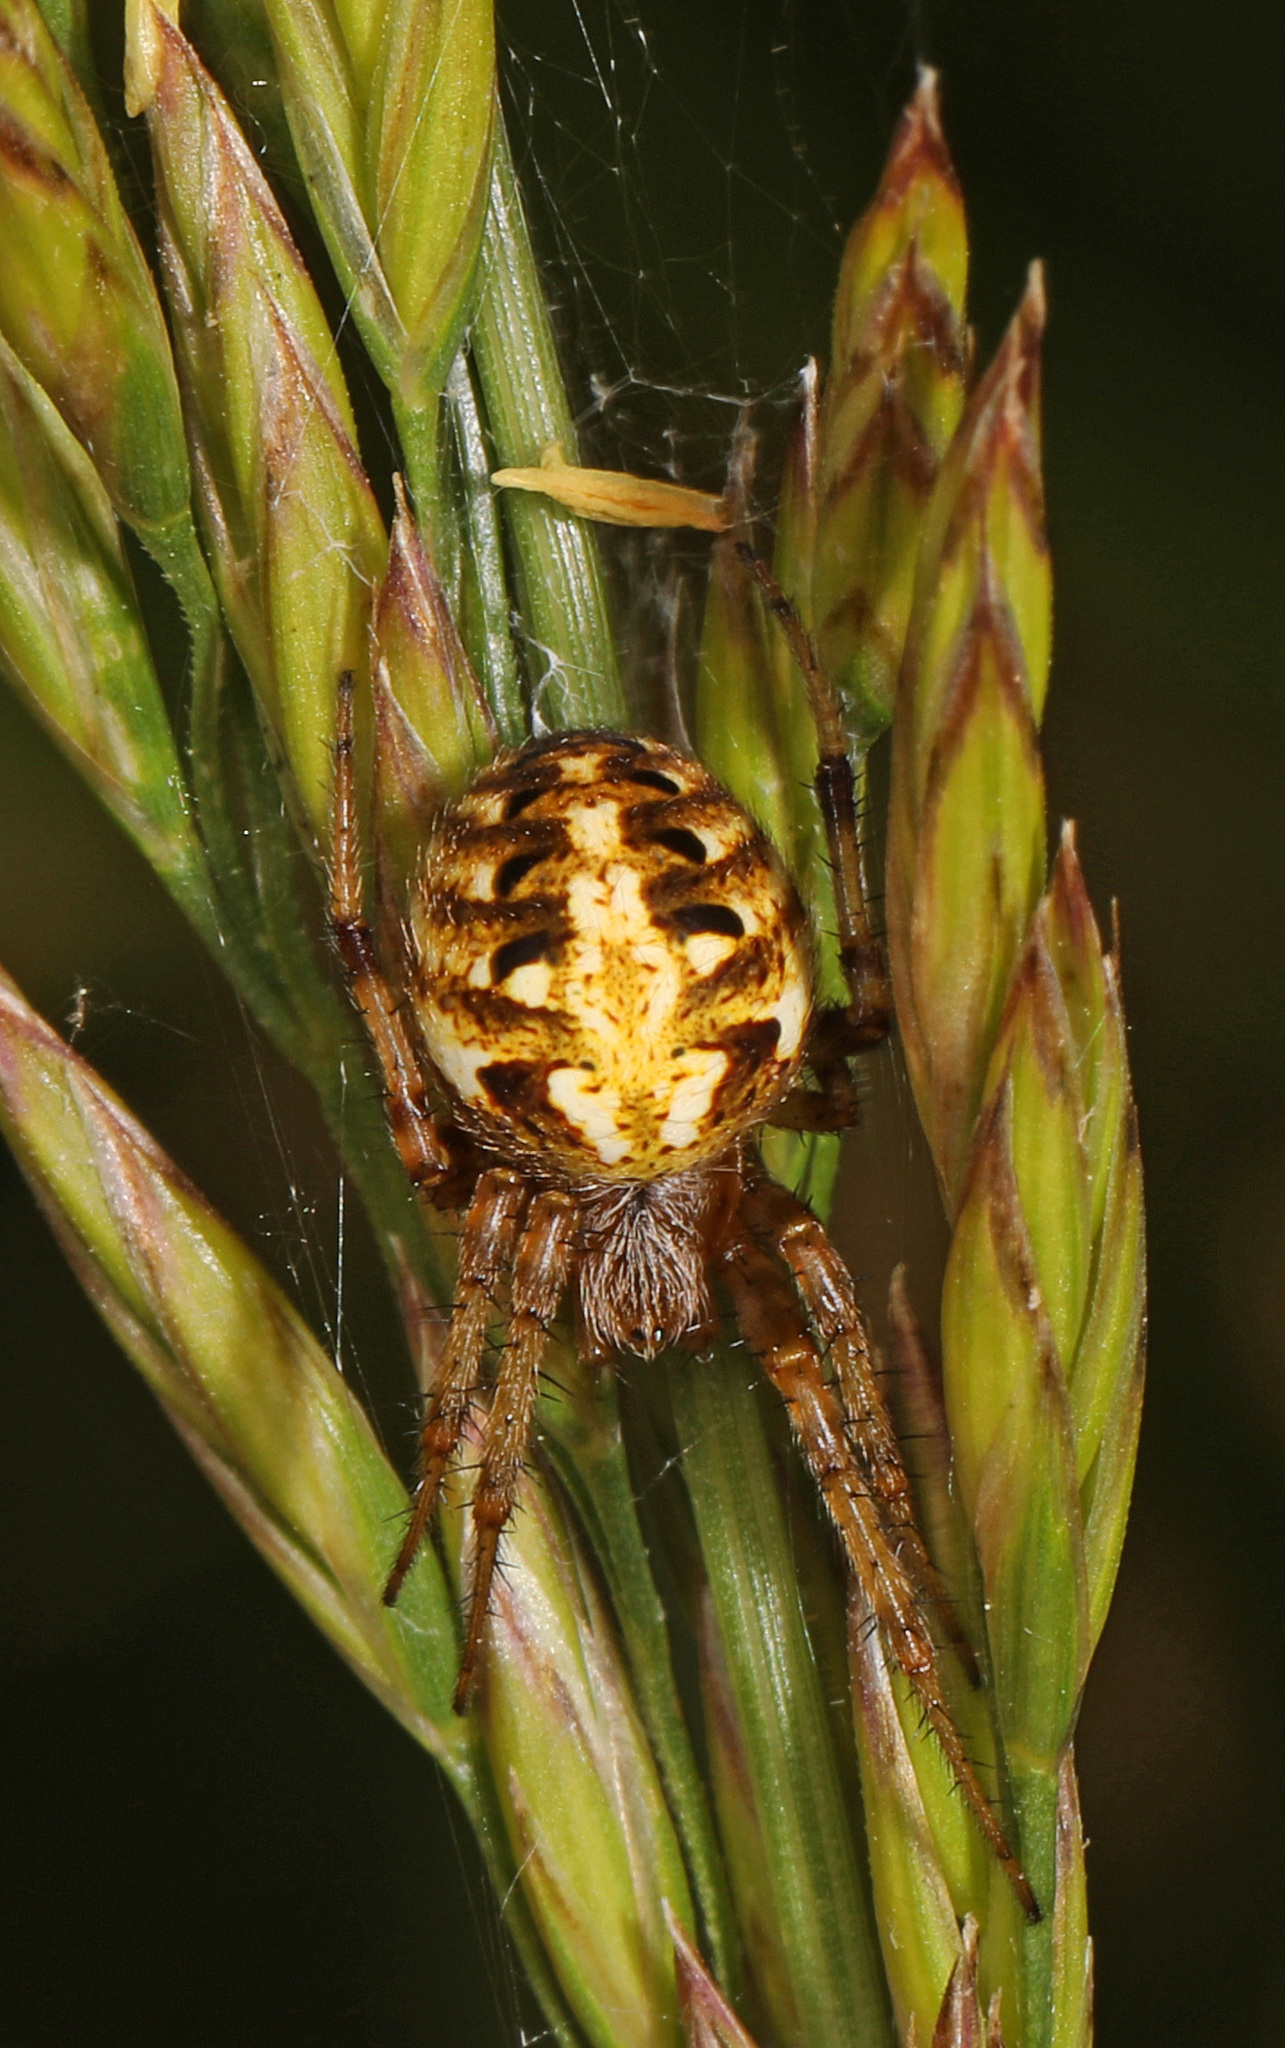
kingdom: Animalia
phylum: Arthropoda
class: Arachnida
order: Araneae
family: Araneidae
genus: Neoscona
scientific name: Neoscona arabesca
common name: Orb weavers
